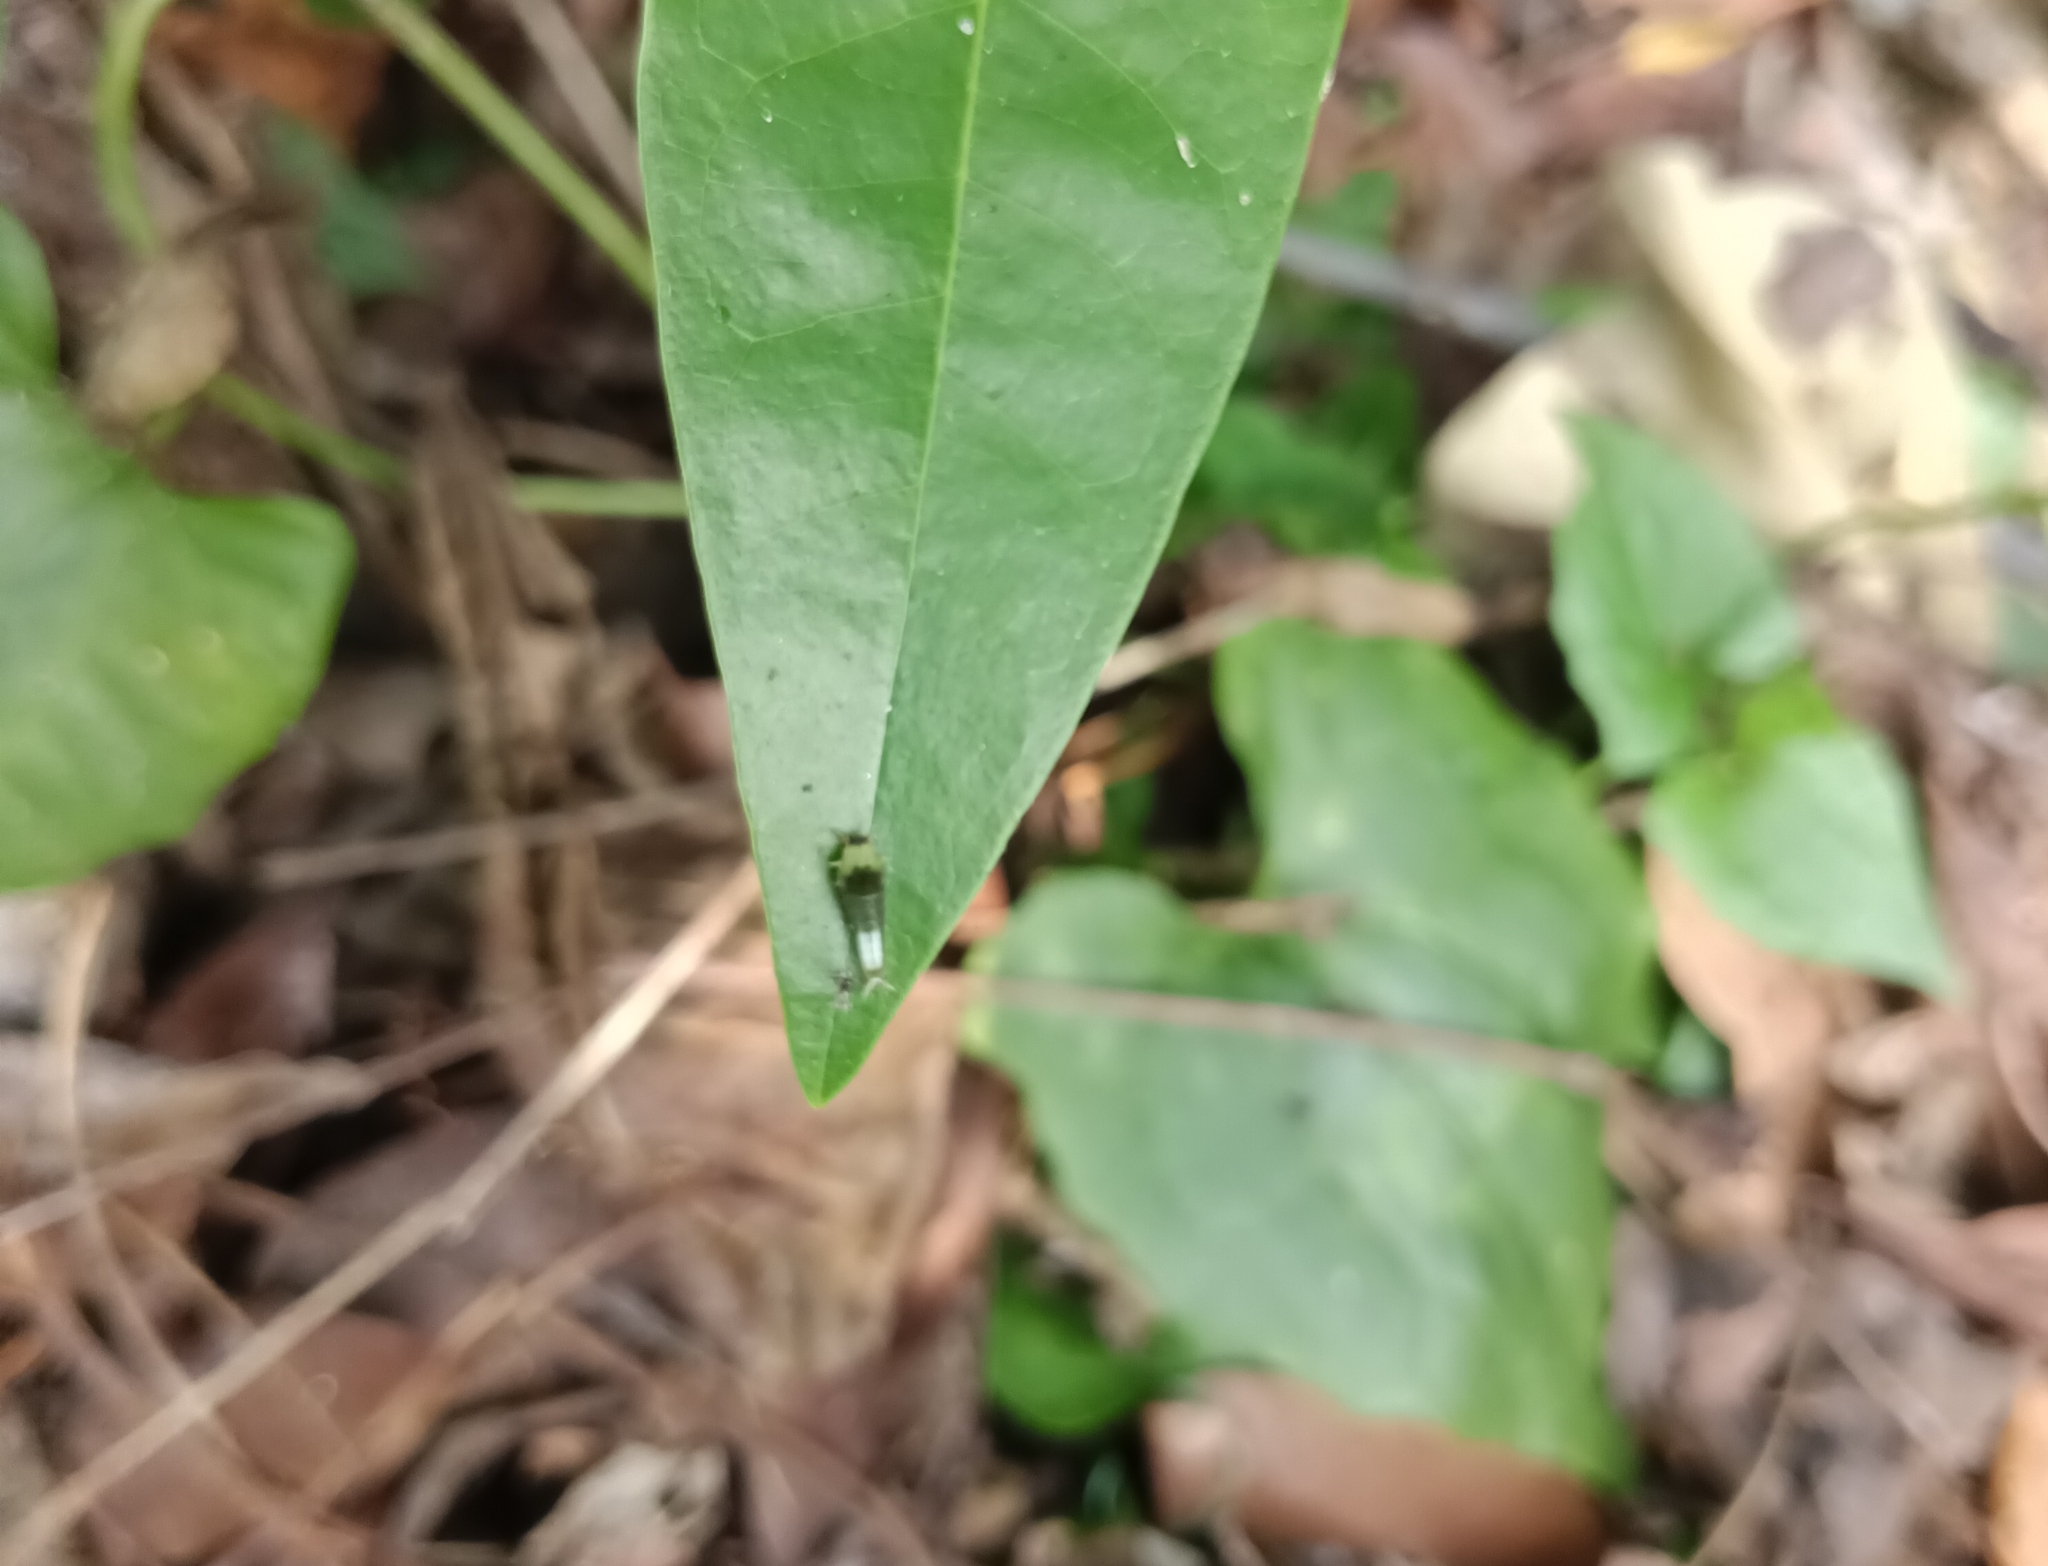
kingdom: Animalia
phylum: Arthropoda
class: Insecta
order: Lepidoptera
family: Papilionidae
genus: Graphium
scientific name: Graphium agamemnon
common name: Tailed jay
